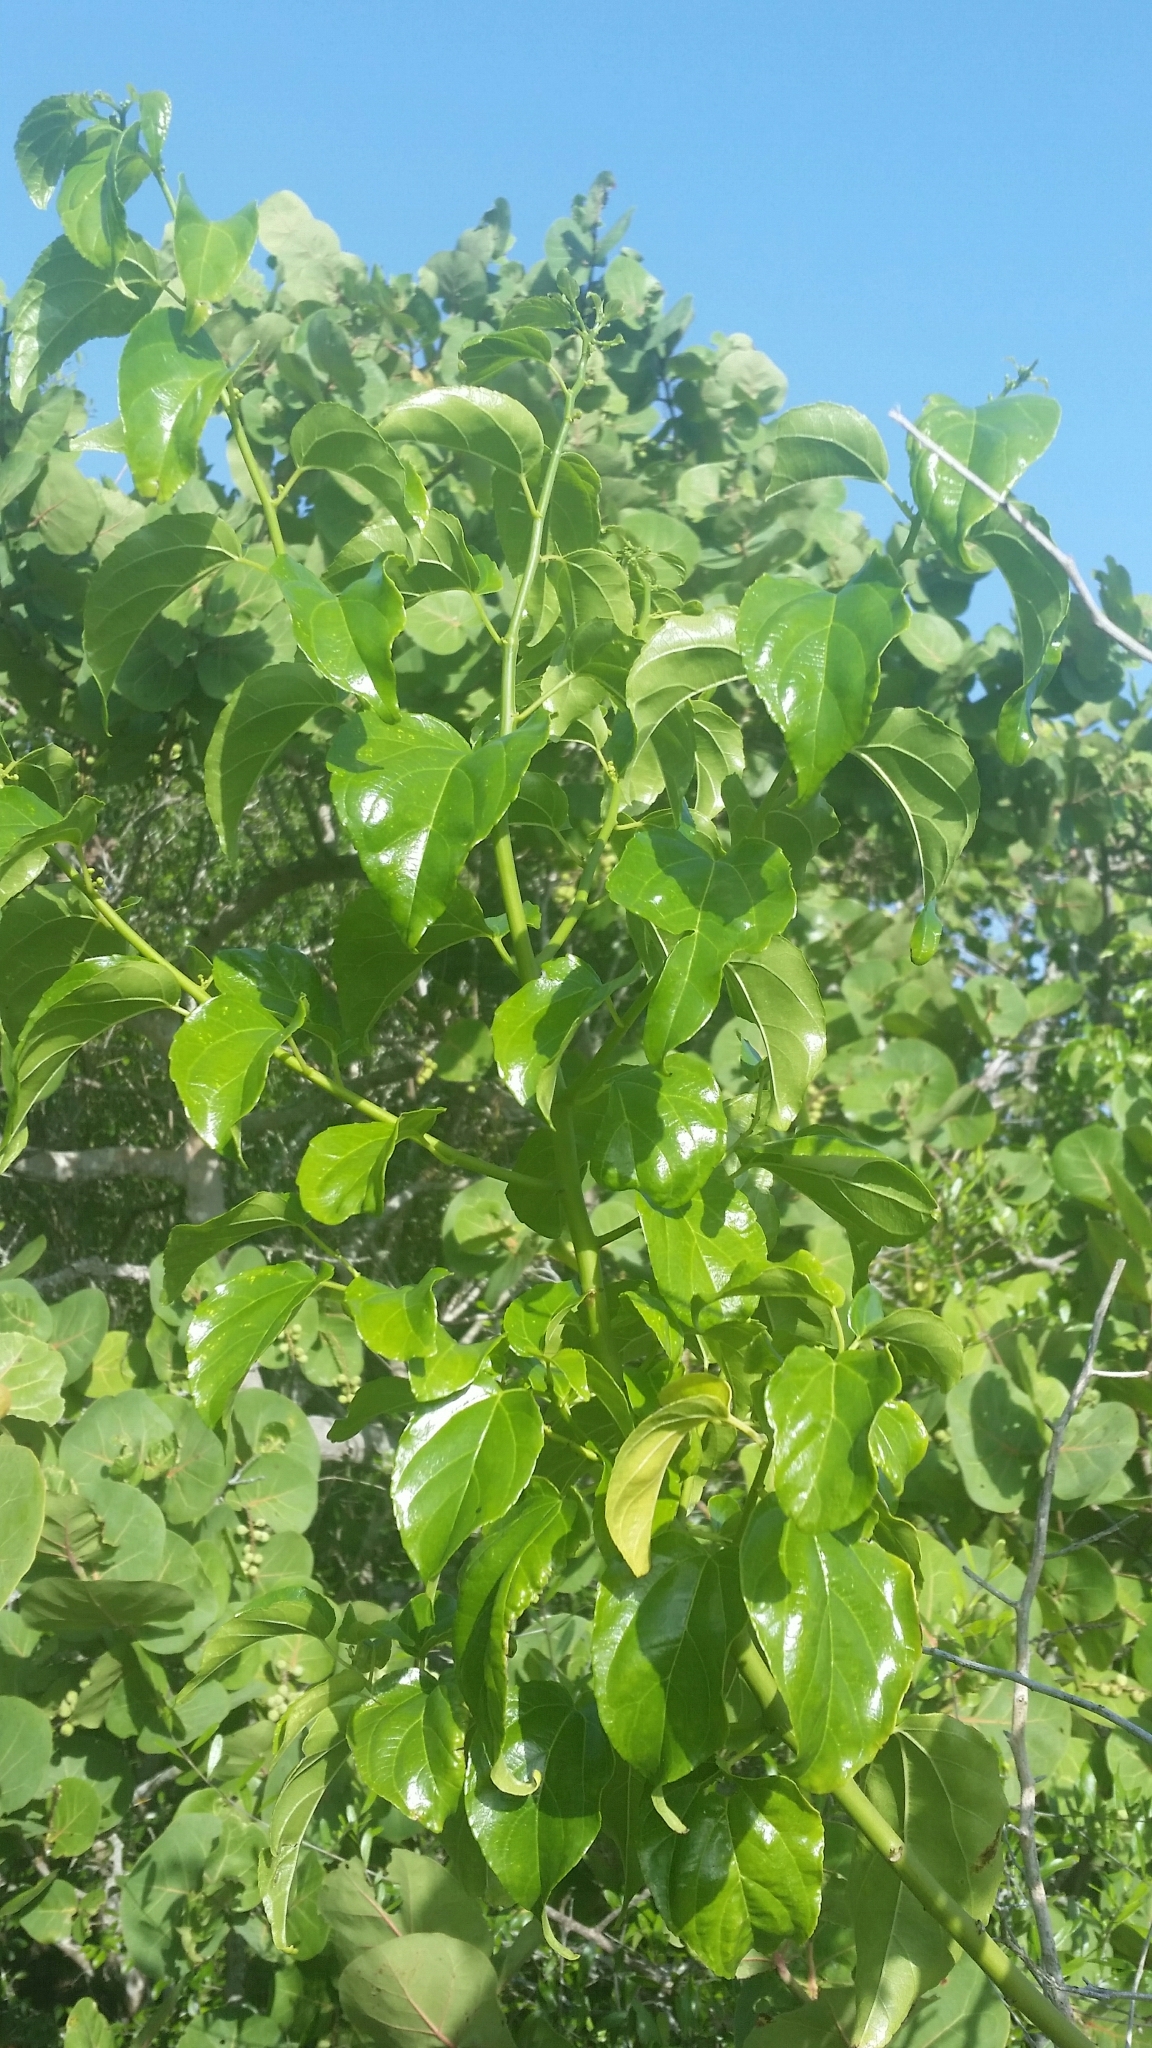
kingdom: Plantae
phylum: Tracheophyta
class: Magnoliopsida
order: Rosales
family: Rhamnaceae
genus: Colubrina
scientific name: Colubrina asiatica
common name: Asian nakedwood
